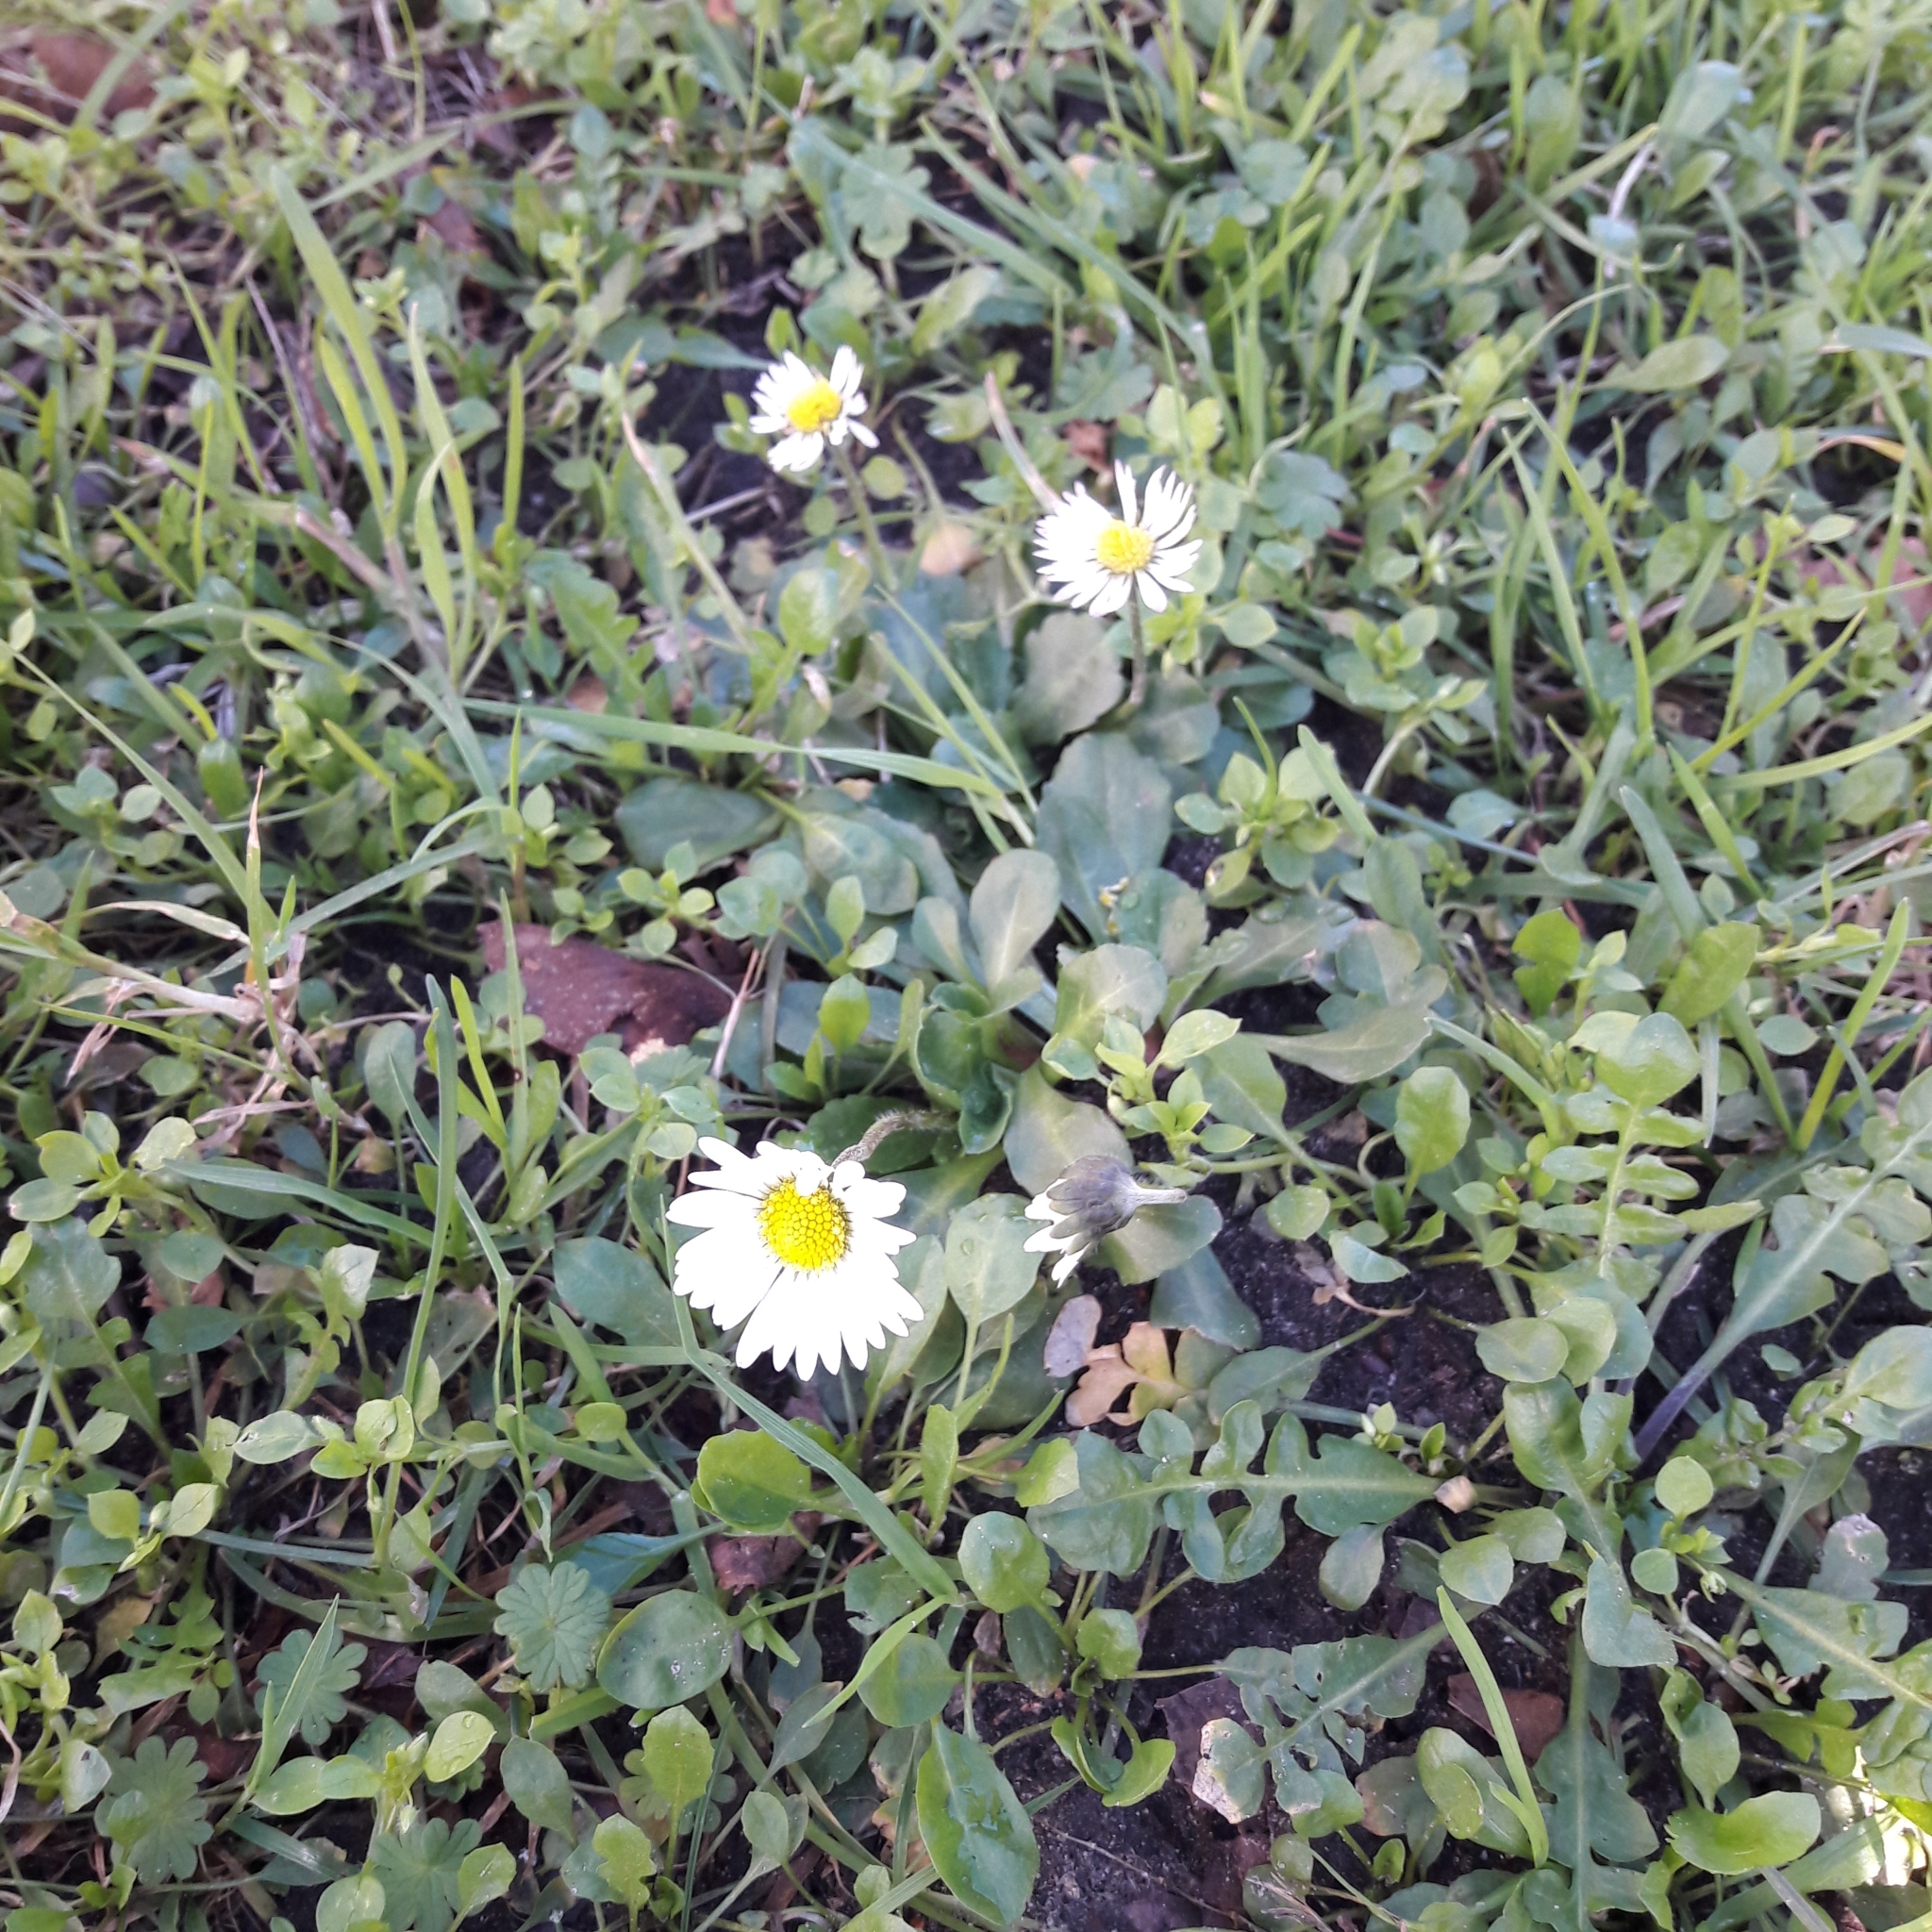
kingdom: Plantae
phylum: Tracheophyta
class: Magnoliopsida
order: Asterales
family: Asteraceae
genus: Bellis
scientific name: Bellis perennis
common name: Lawndaisy
